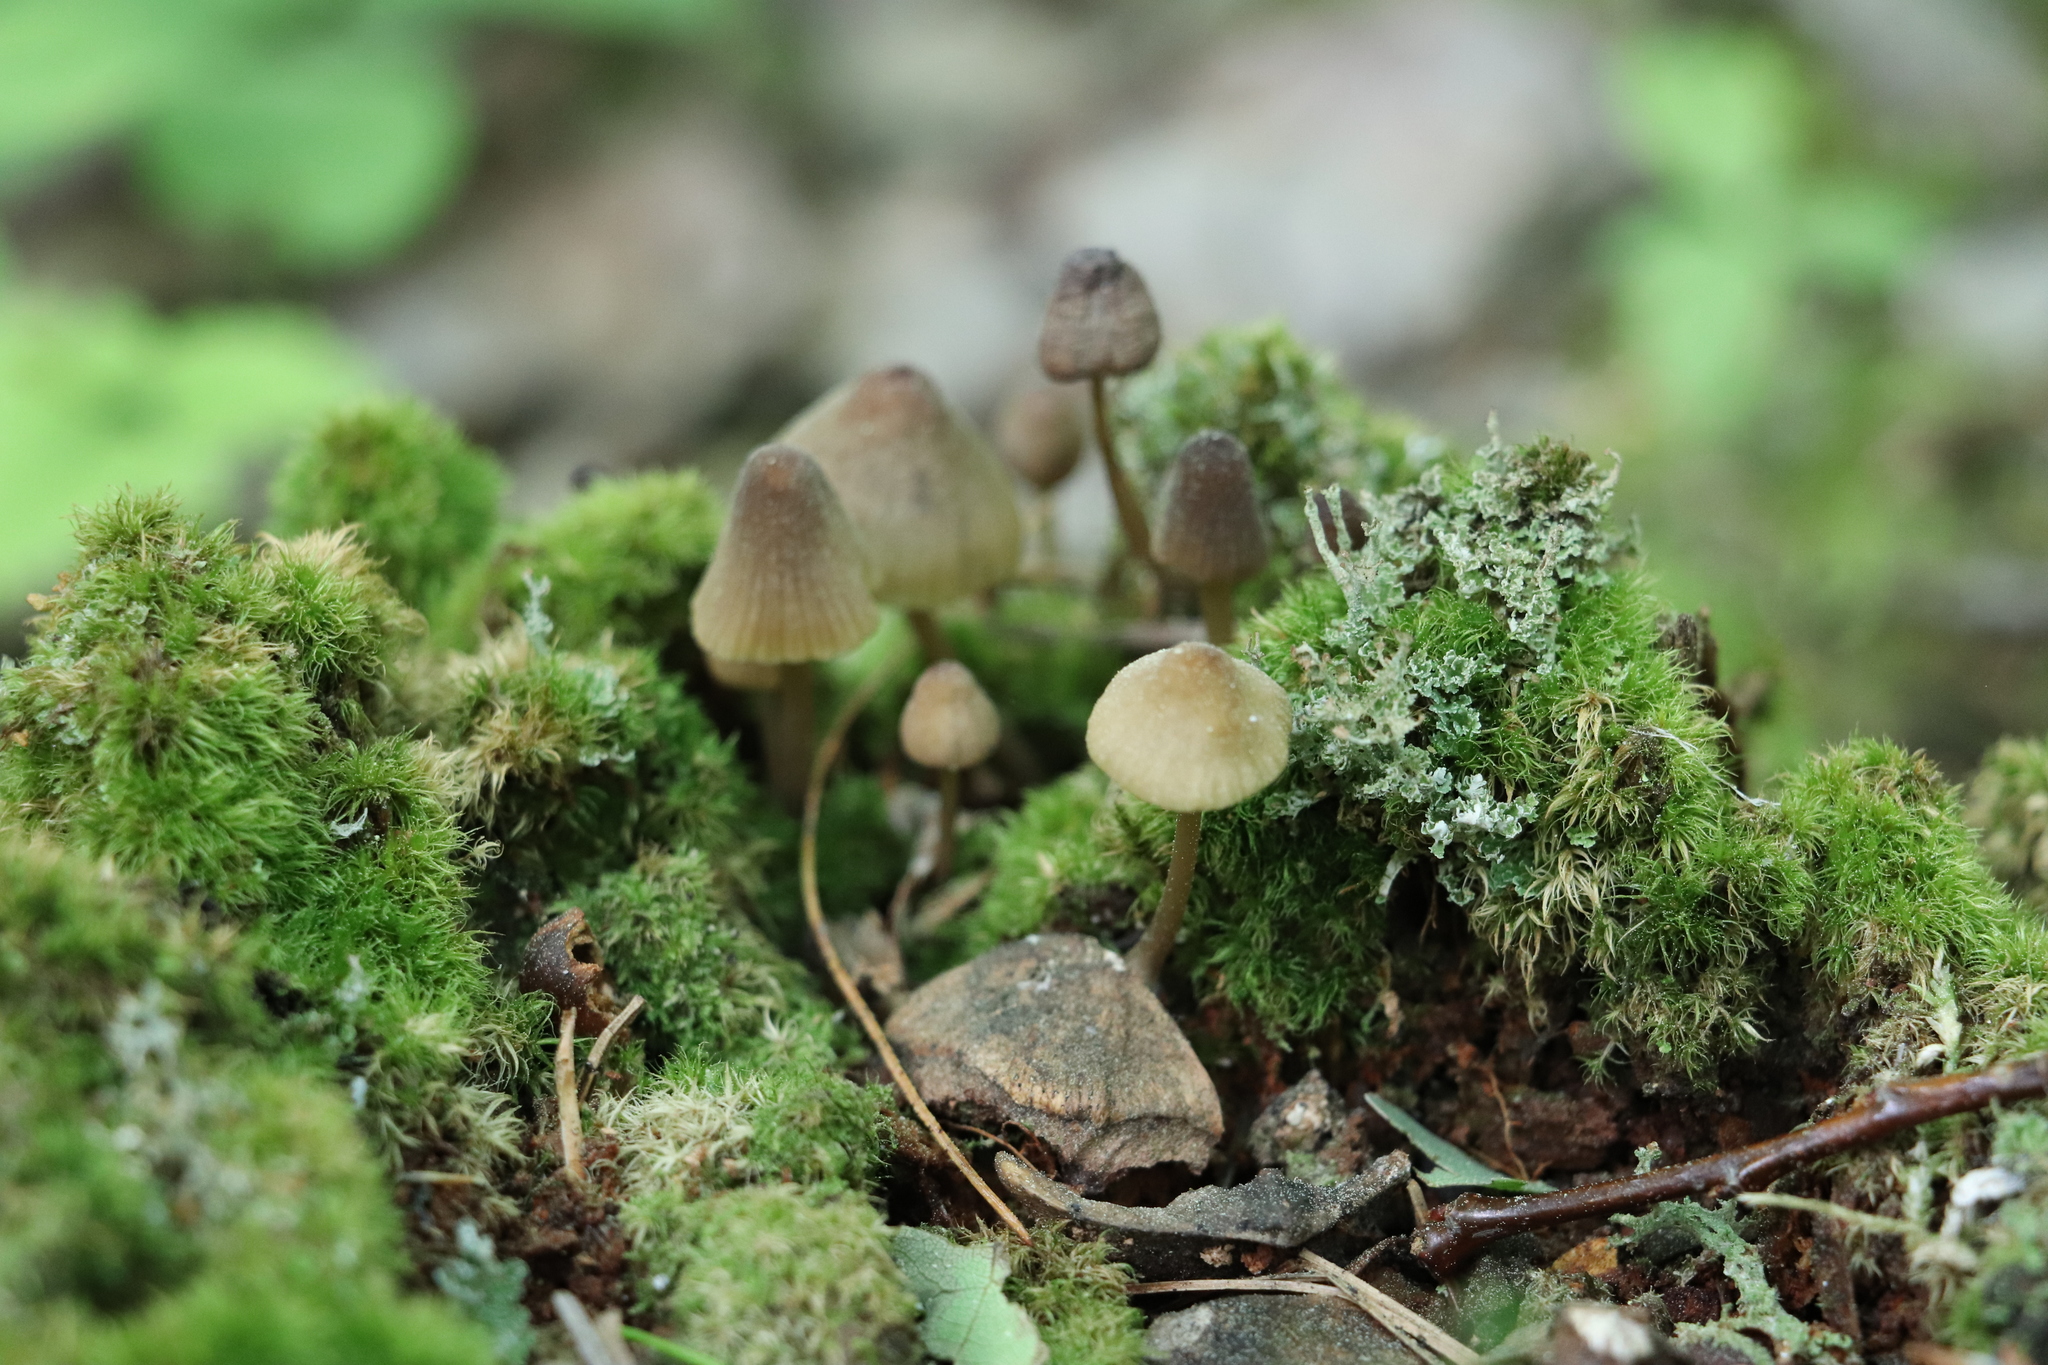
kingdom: Fungi
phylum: Basidiomycota
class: Agaricomycetes
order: Agaricales
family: Mycenaceae
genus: Mycena
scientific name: Mycena viridimarginata
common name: Olive edge bonnet
